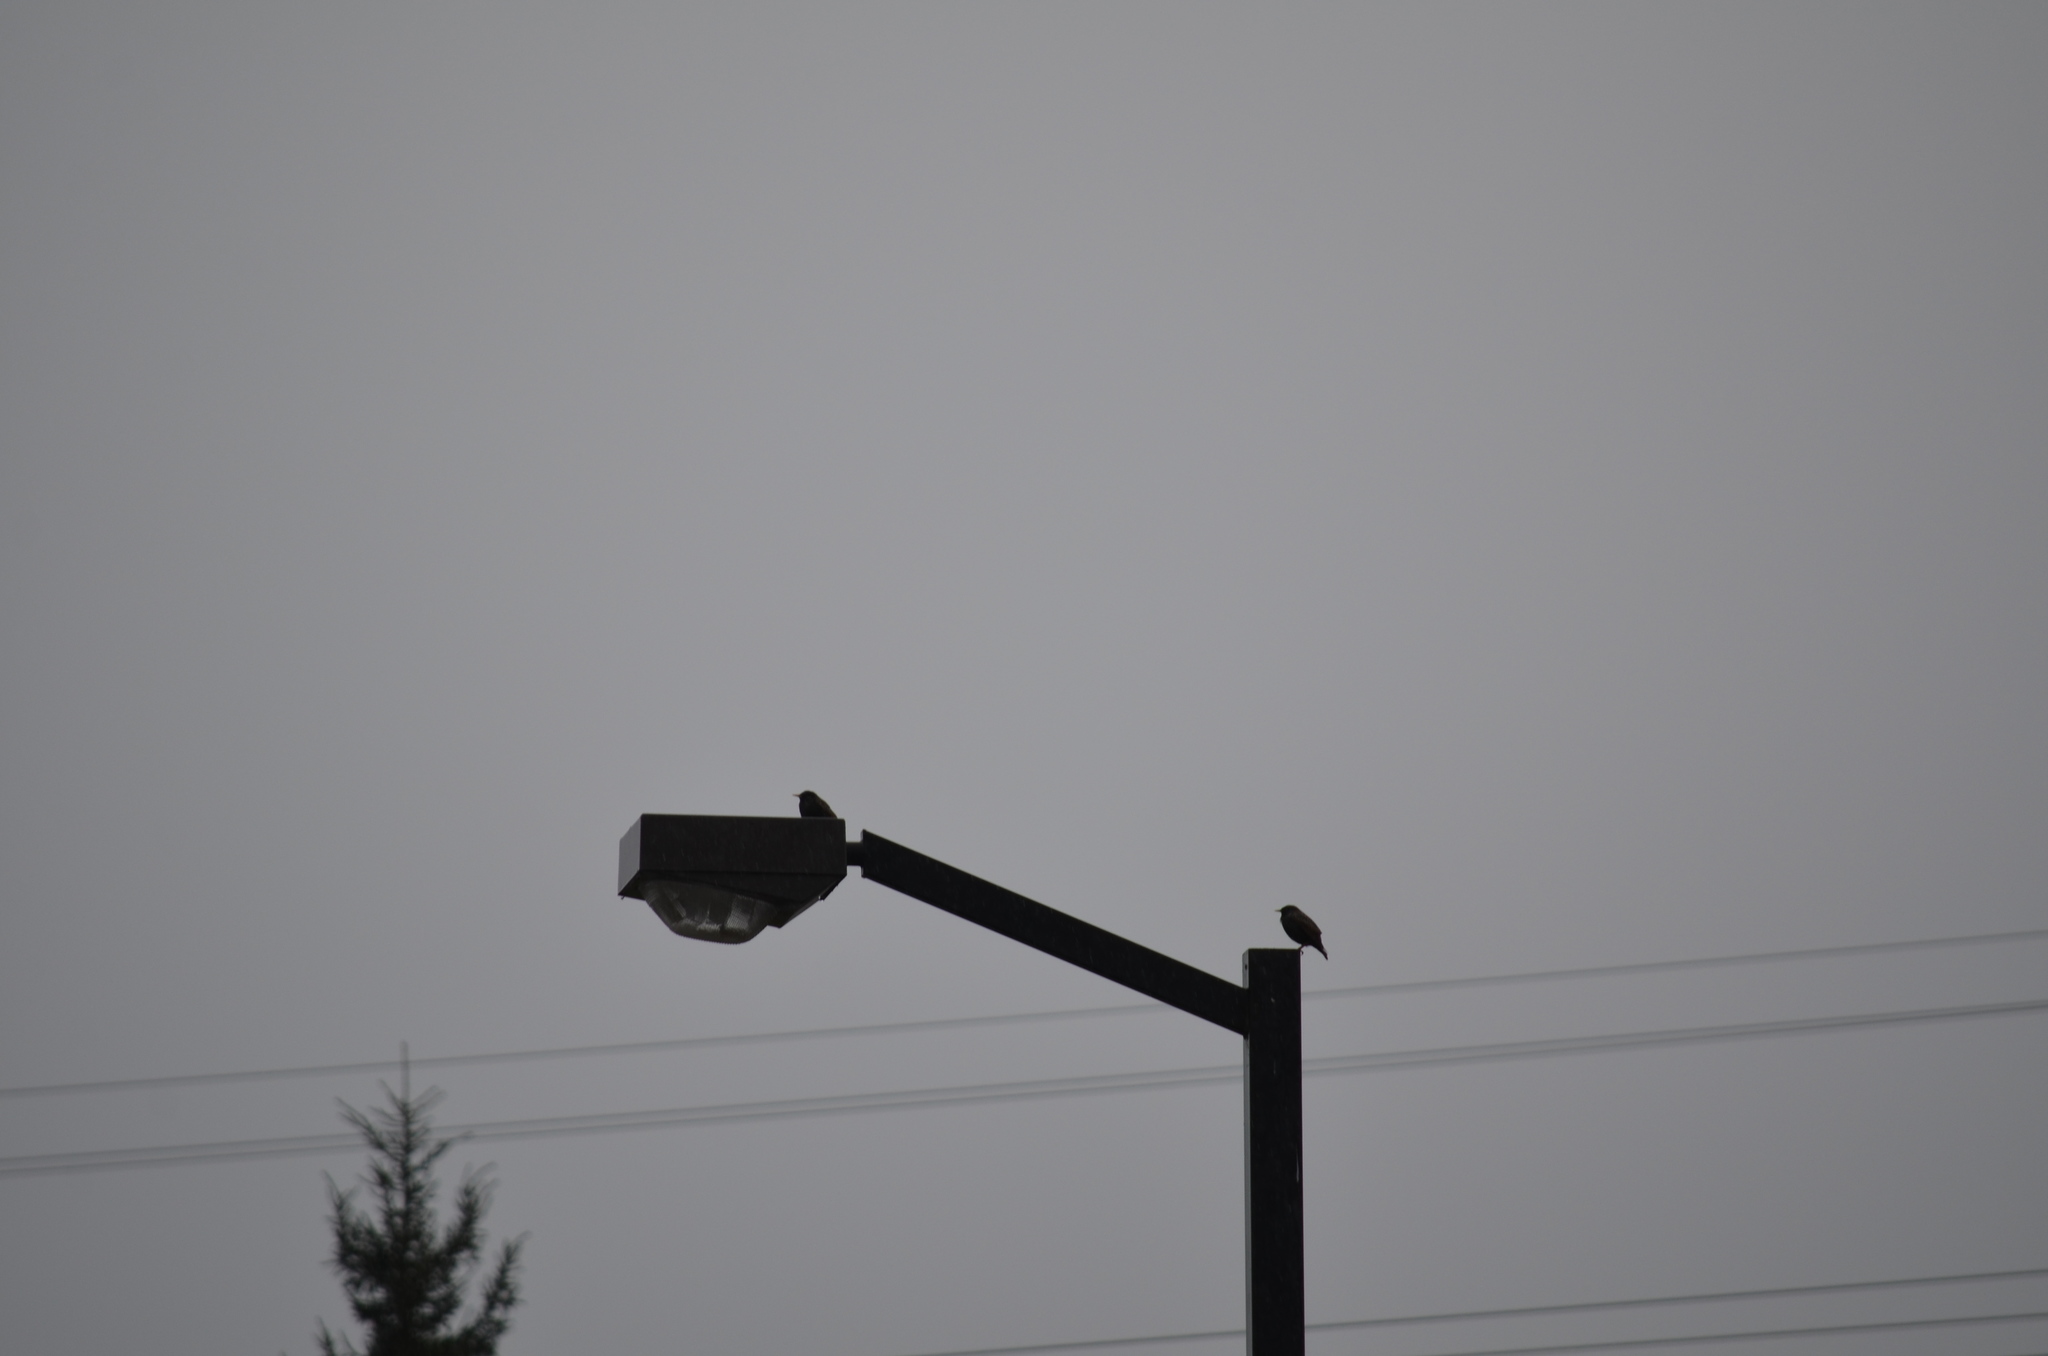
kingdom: Animalia
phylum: Chordata
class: Aves
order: Passeriformes
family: Sturnidae
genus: Sturnus
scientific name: Sturnus vulgaris
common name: Common starling
